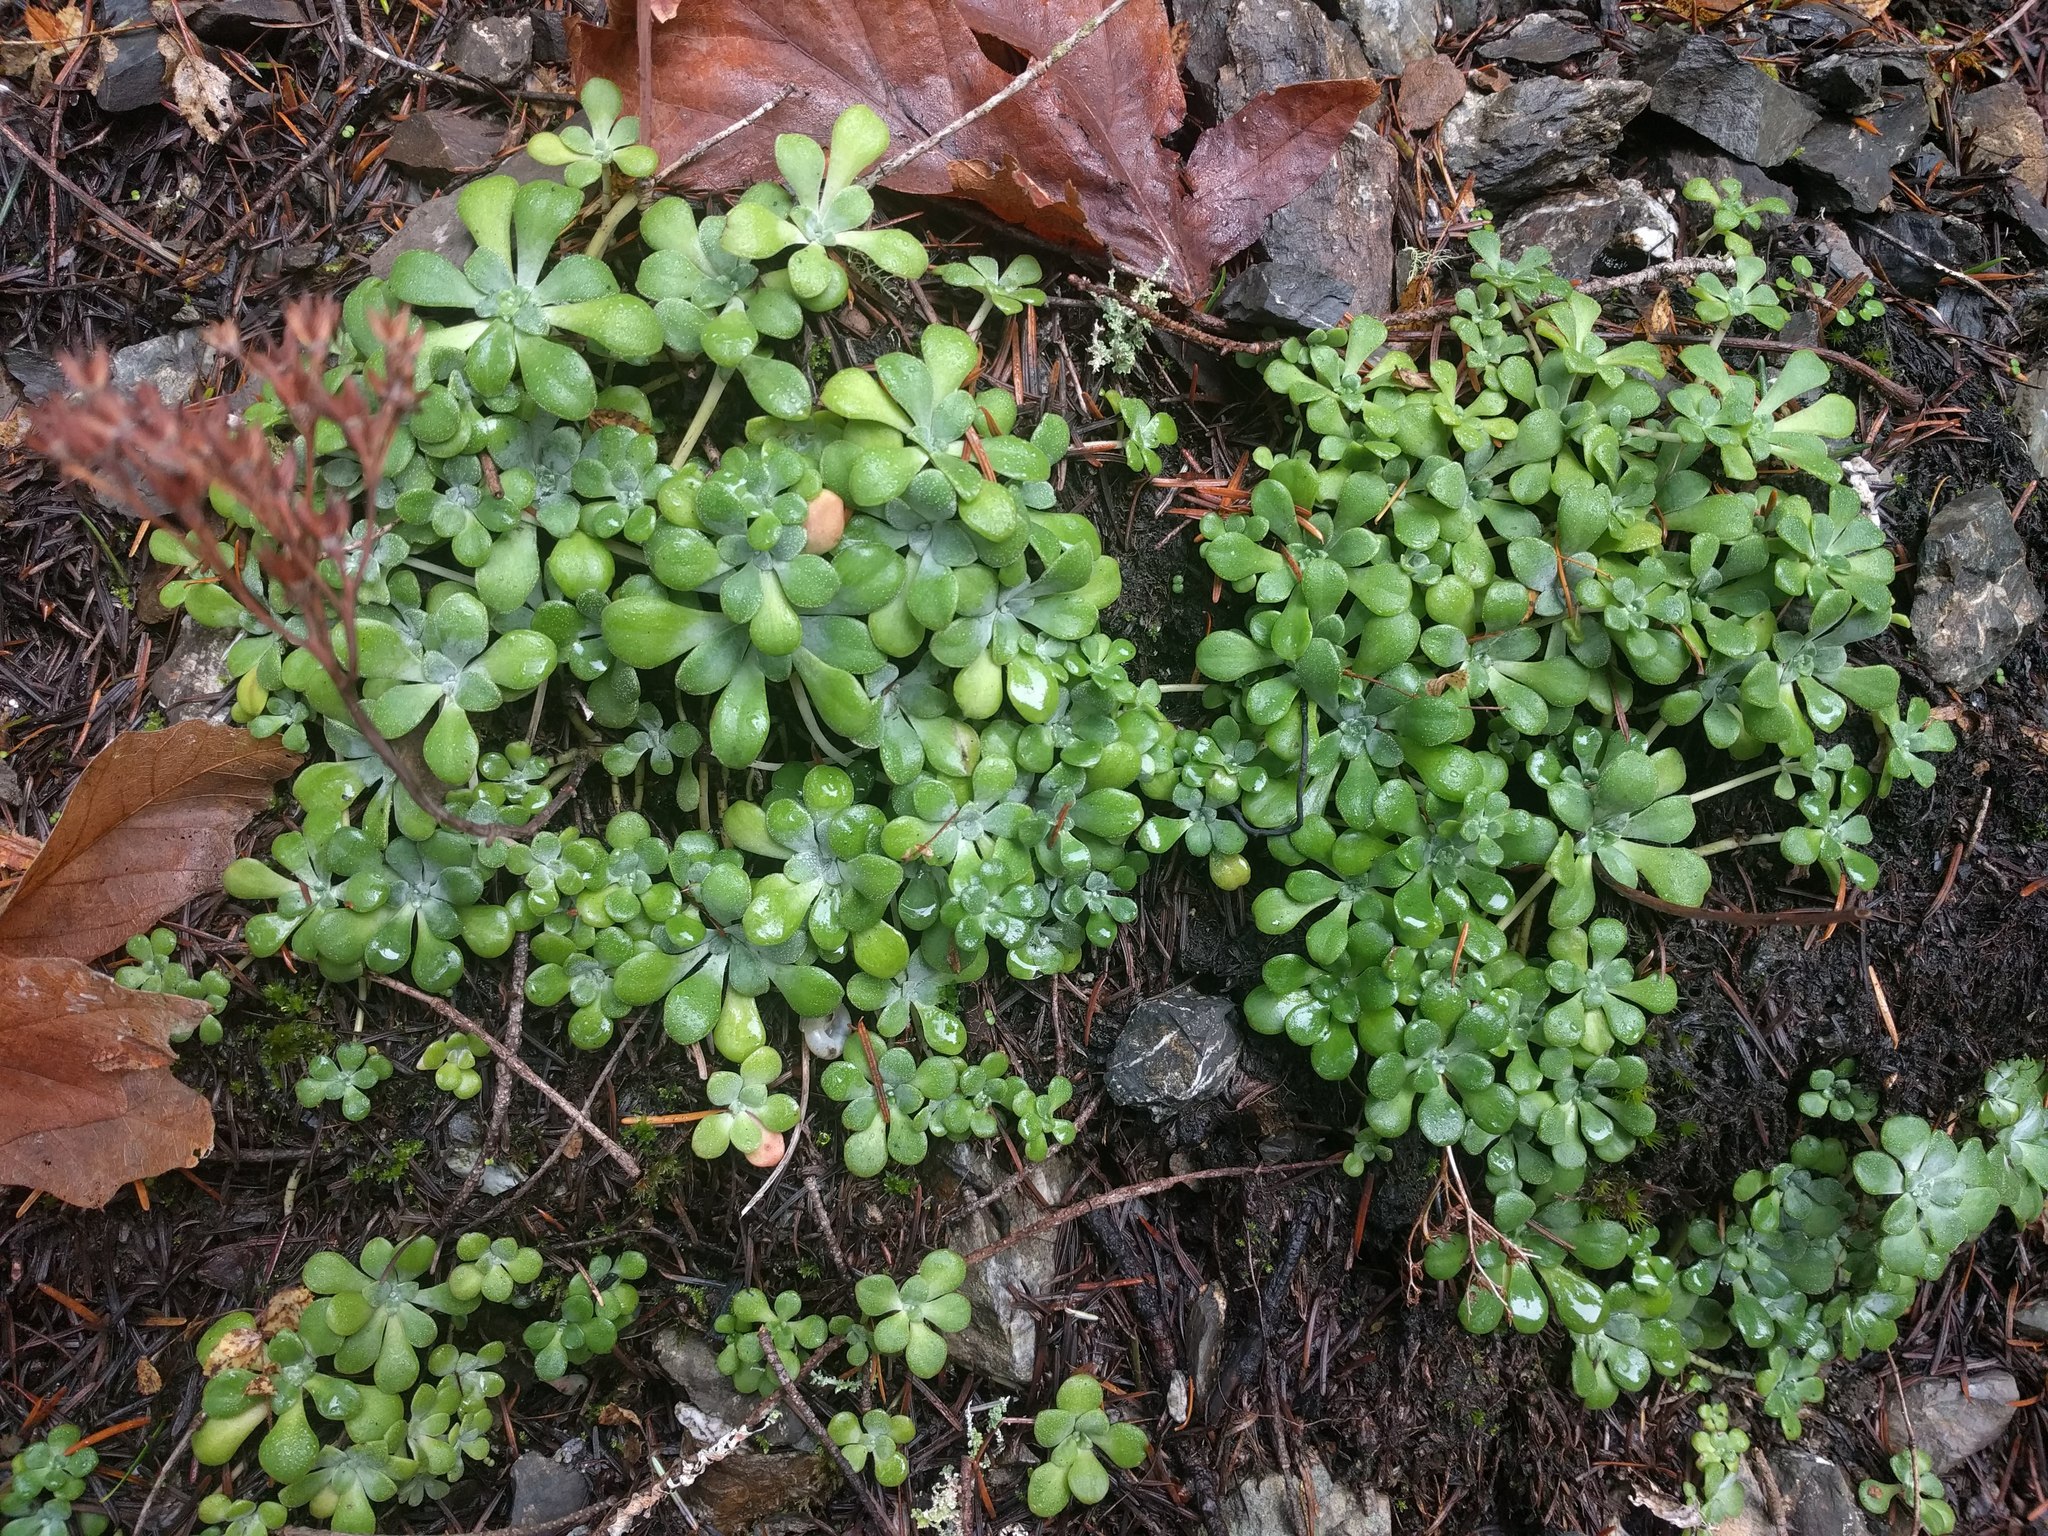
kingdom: Plantae
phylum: Tracheophyta
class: Magnoliopsida
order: Saxifragales
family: Crassulaceae
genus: Sedum
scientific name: Sedum spathulifolium
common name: Colorado stonecrop
